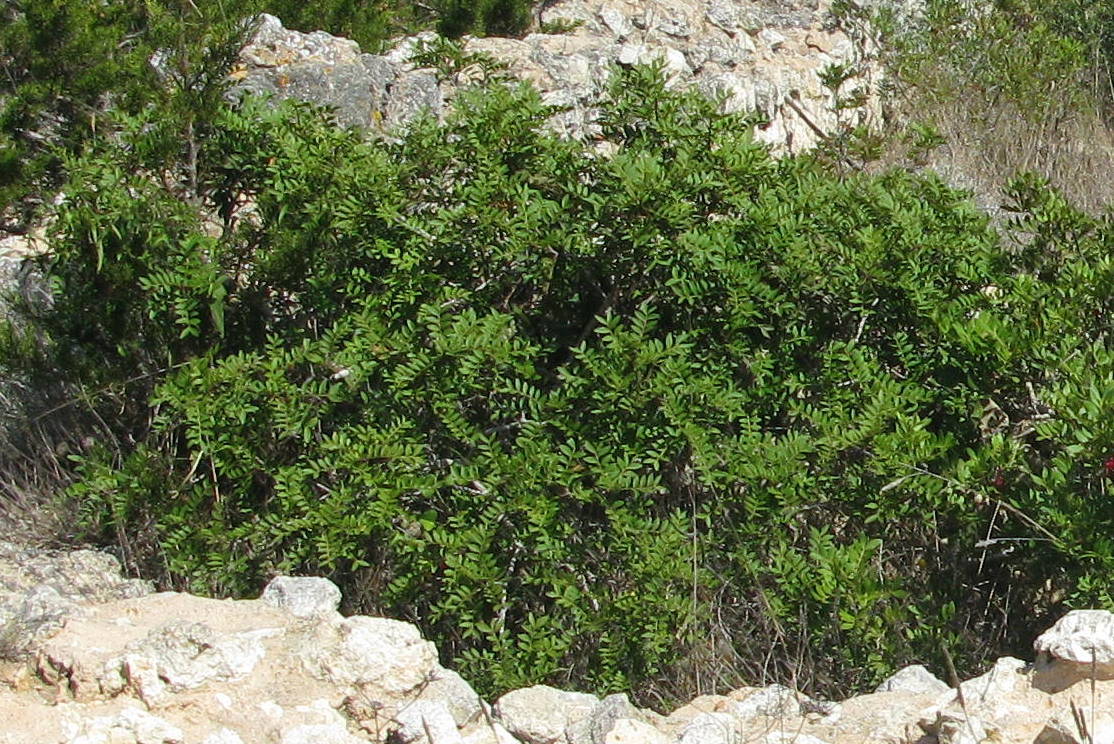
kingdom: Plantae
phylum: Tracheophyta
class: Magnoliopsida
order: Sapindales
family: Anacardiaceae
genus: Pistacia
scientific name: Pistacia lentiscus
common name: Lentisk
